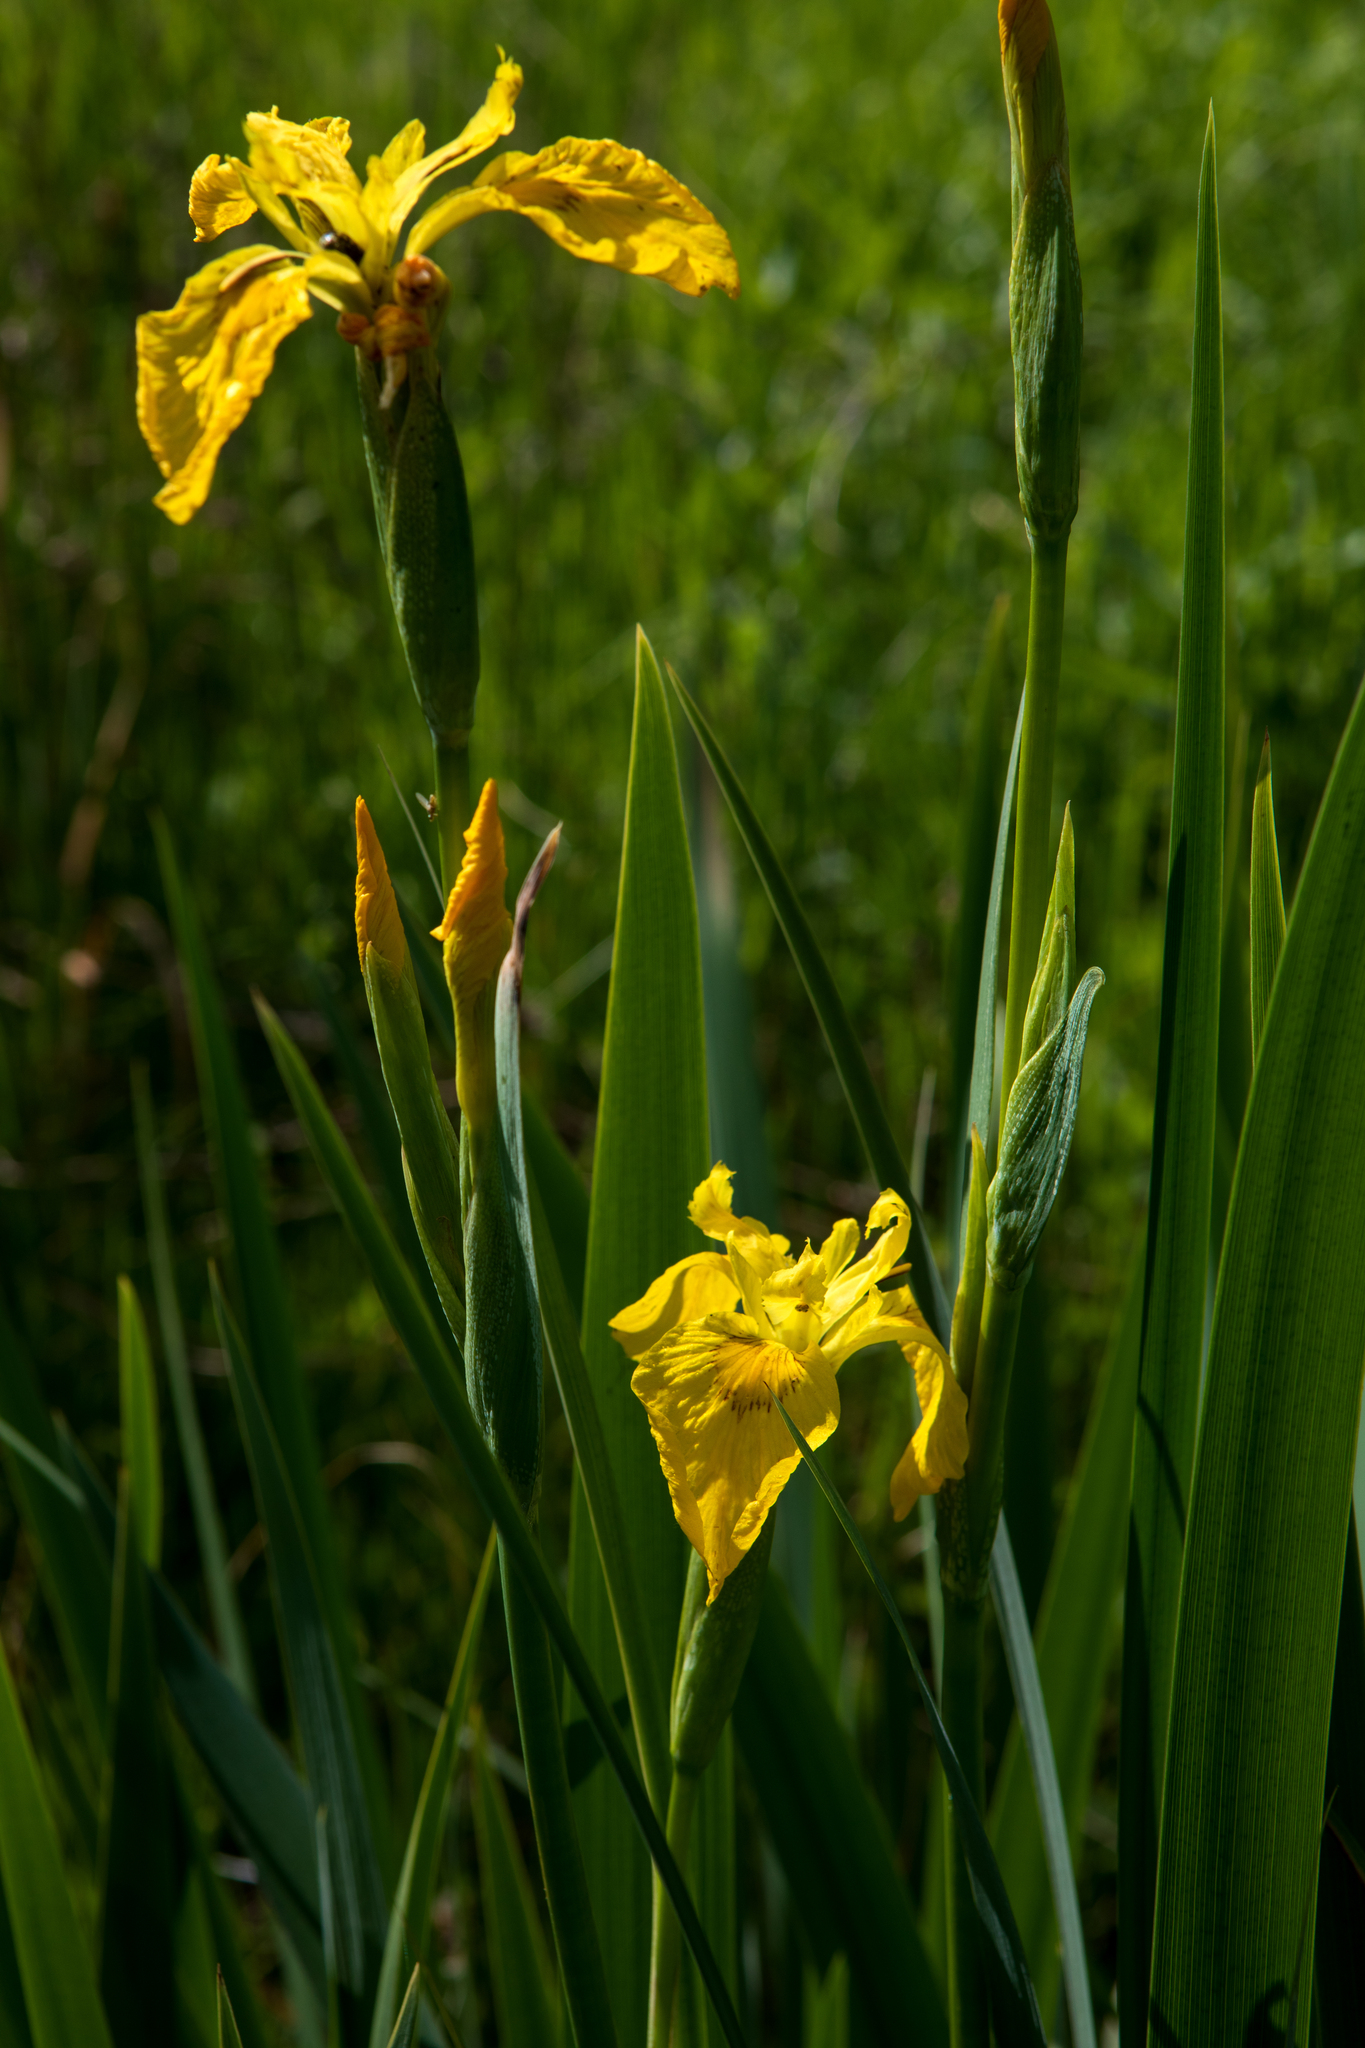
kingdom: Plantae
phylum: Tracheophyta
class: Liliopsida
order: Asparagales
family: Iridaceae
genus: Iris
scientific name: Iris pseudacorus
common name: Yellow flag
